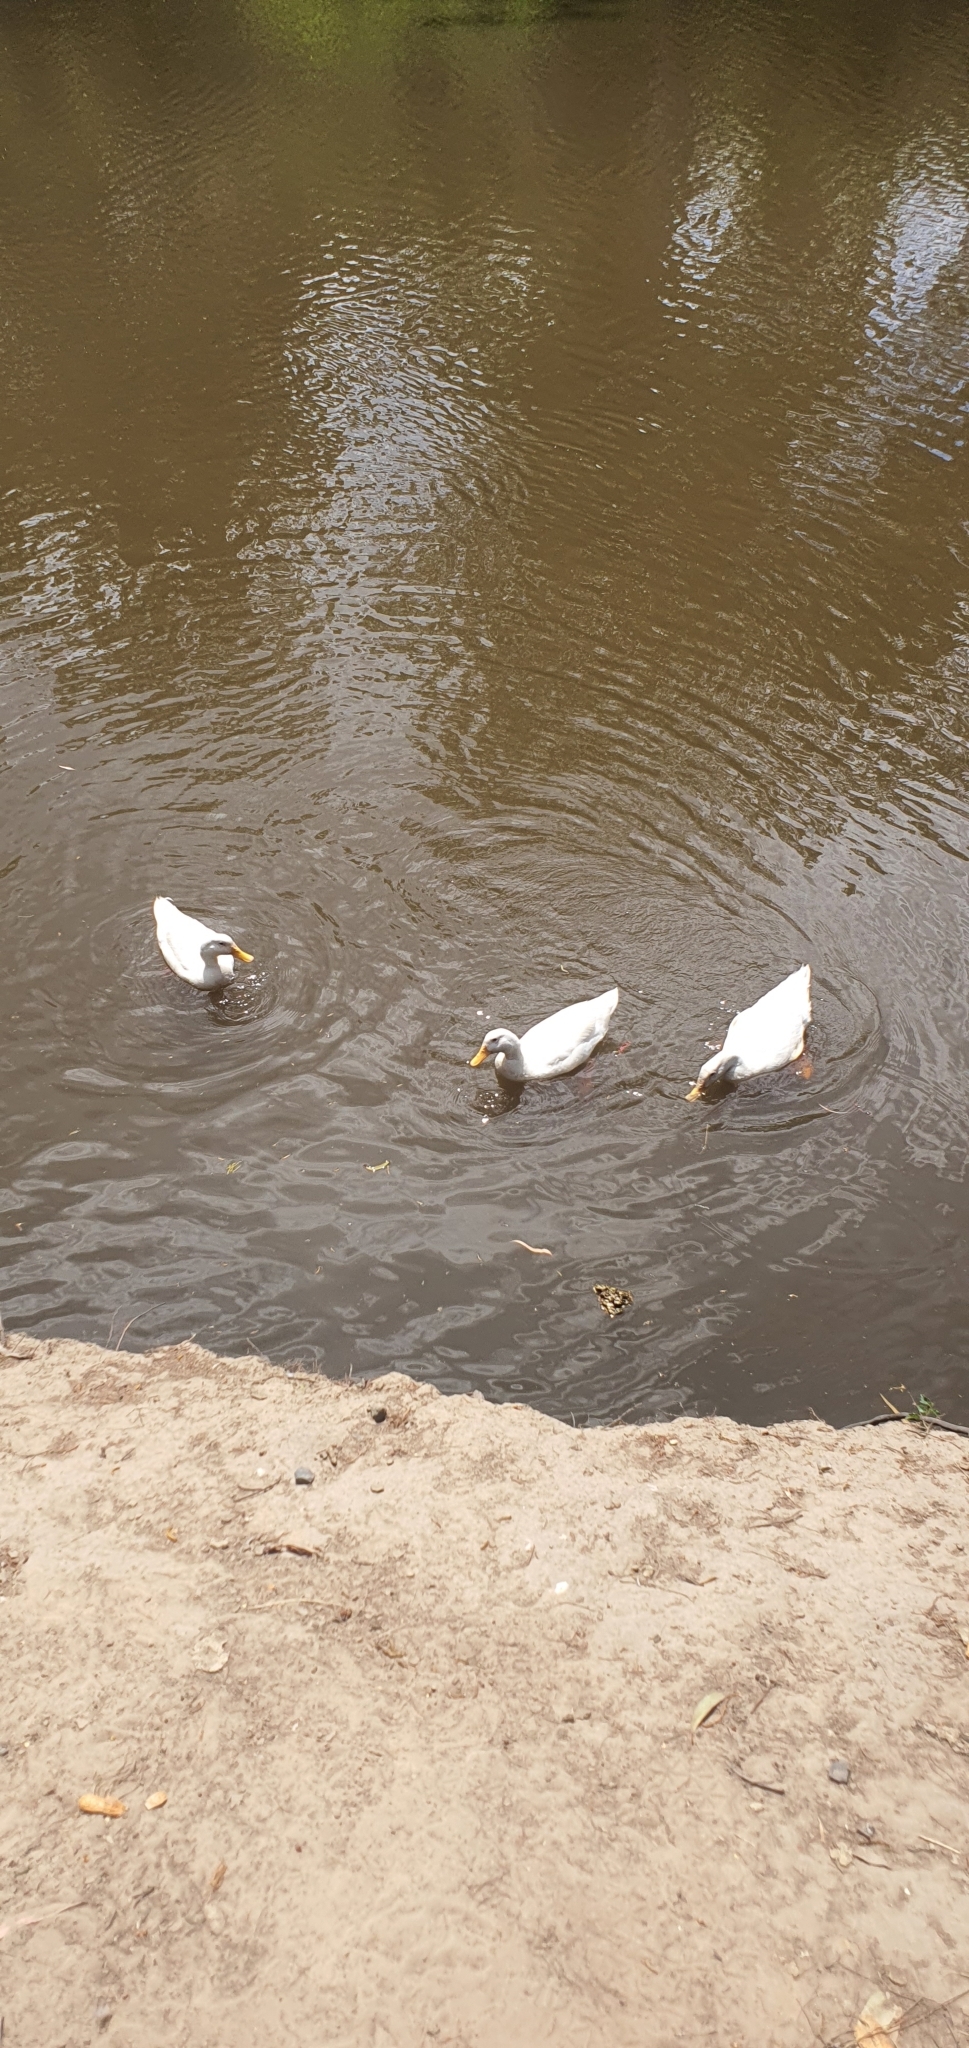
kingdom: Animalia
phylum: Chordata
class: Aves
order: Anseriformes
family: Anatidae
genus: Anas
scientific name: Anas platyrhynchos
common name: Mallard
